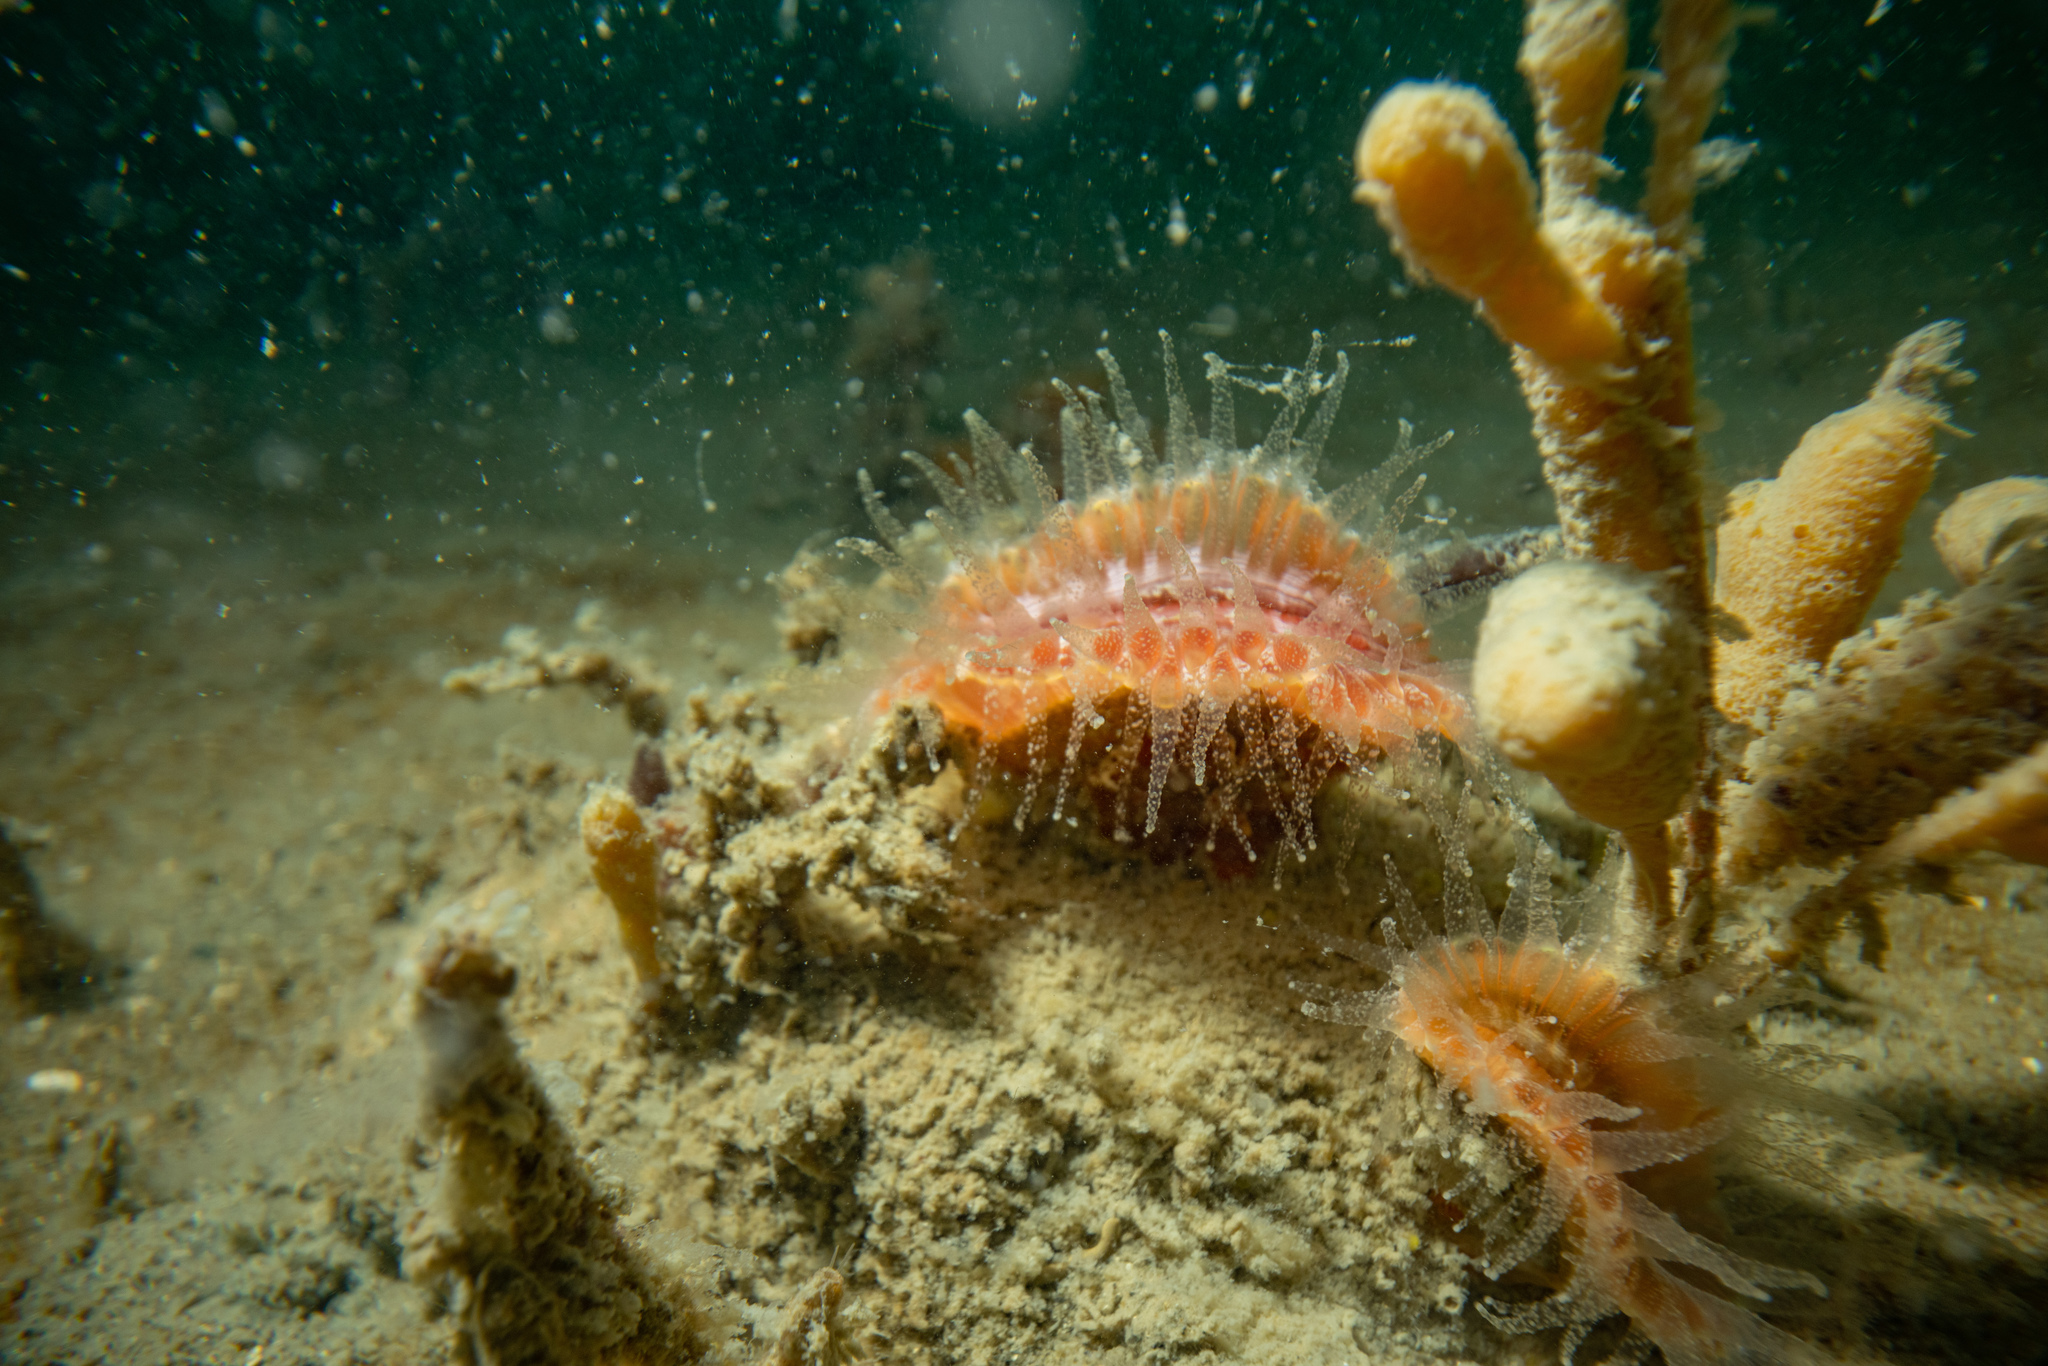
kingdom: Animalia
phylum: Cnidaria
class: Anthozoa
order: Scleractinia
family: Flabellidae
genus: Monomyces
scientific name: Monomyces rubrum
